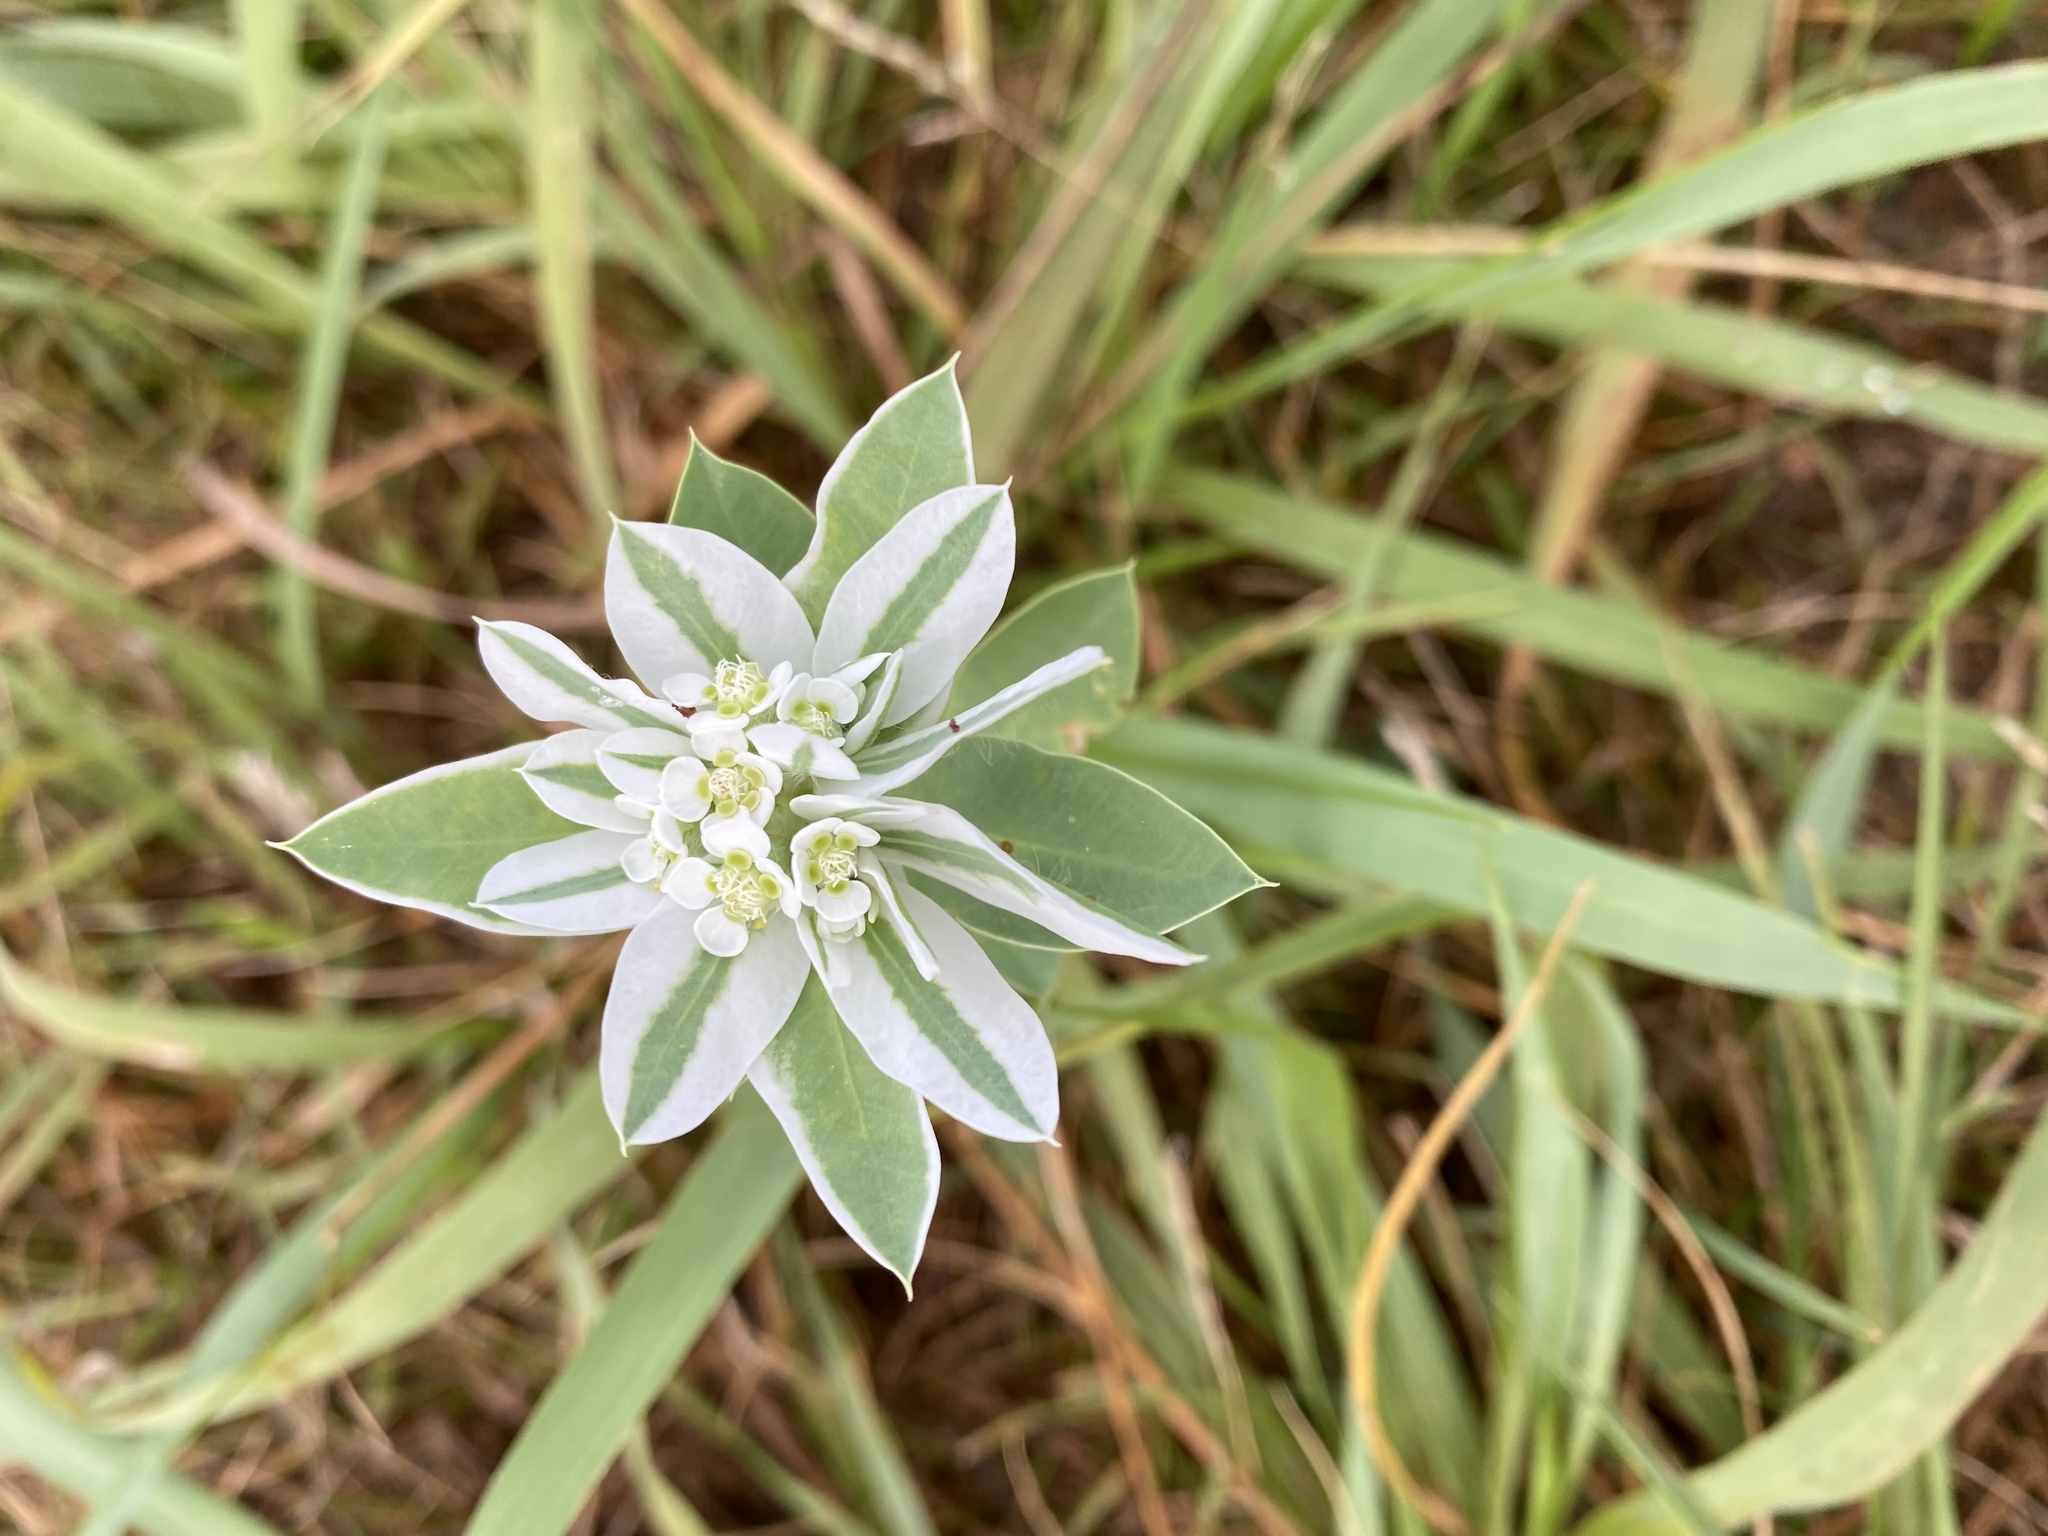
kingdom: Plantae
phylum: Tracheophyta
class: Magnoliopsida
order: Malpighiales
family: Euphorbiaceae
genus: Euphorbia
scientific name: Euphorbia marginata
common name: Ghostweed
